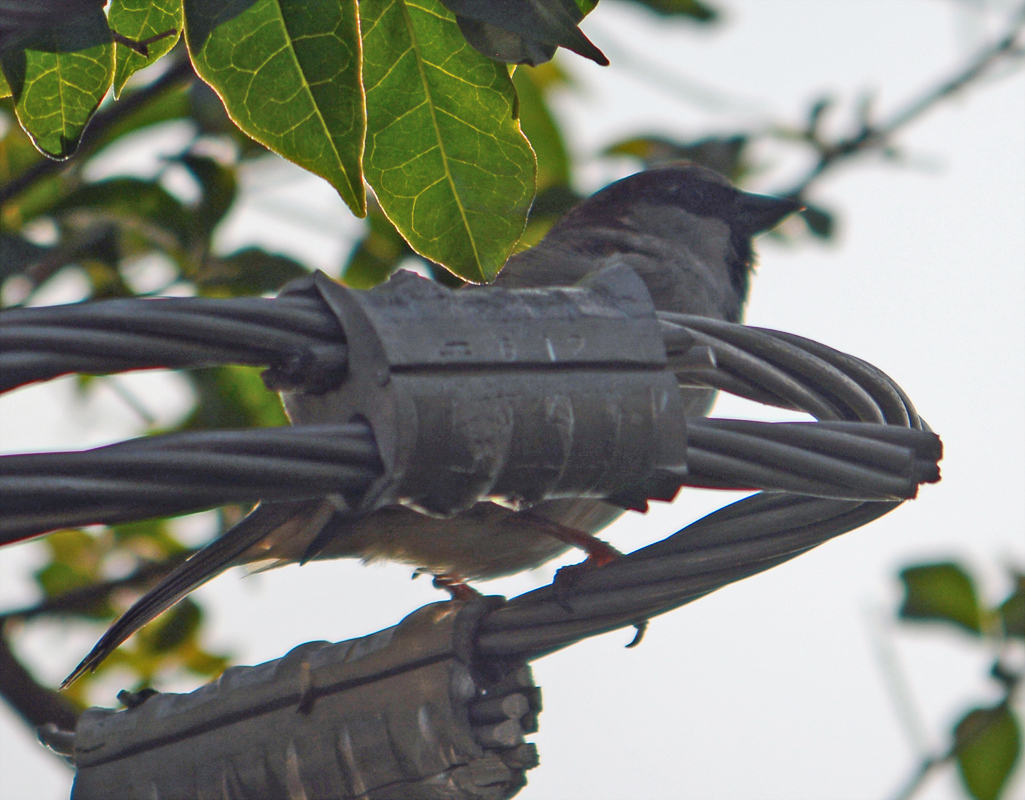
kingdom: Animalia
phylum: Chordata
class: Aves
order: Passeriformes
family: Passeridae
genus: Passer
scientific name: Passer domesticus
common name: House sparrow
